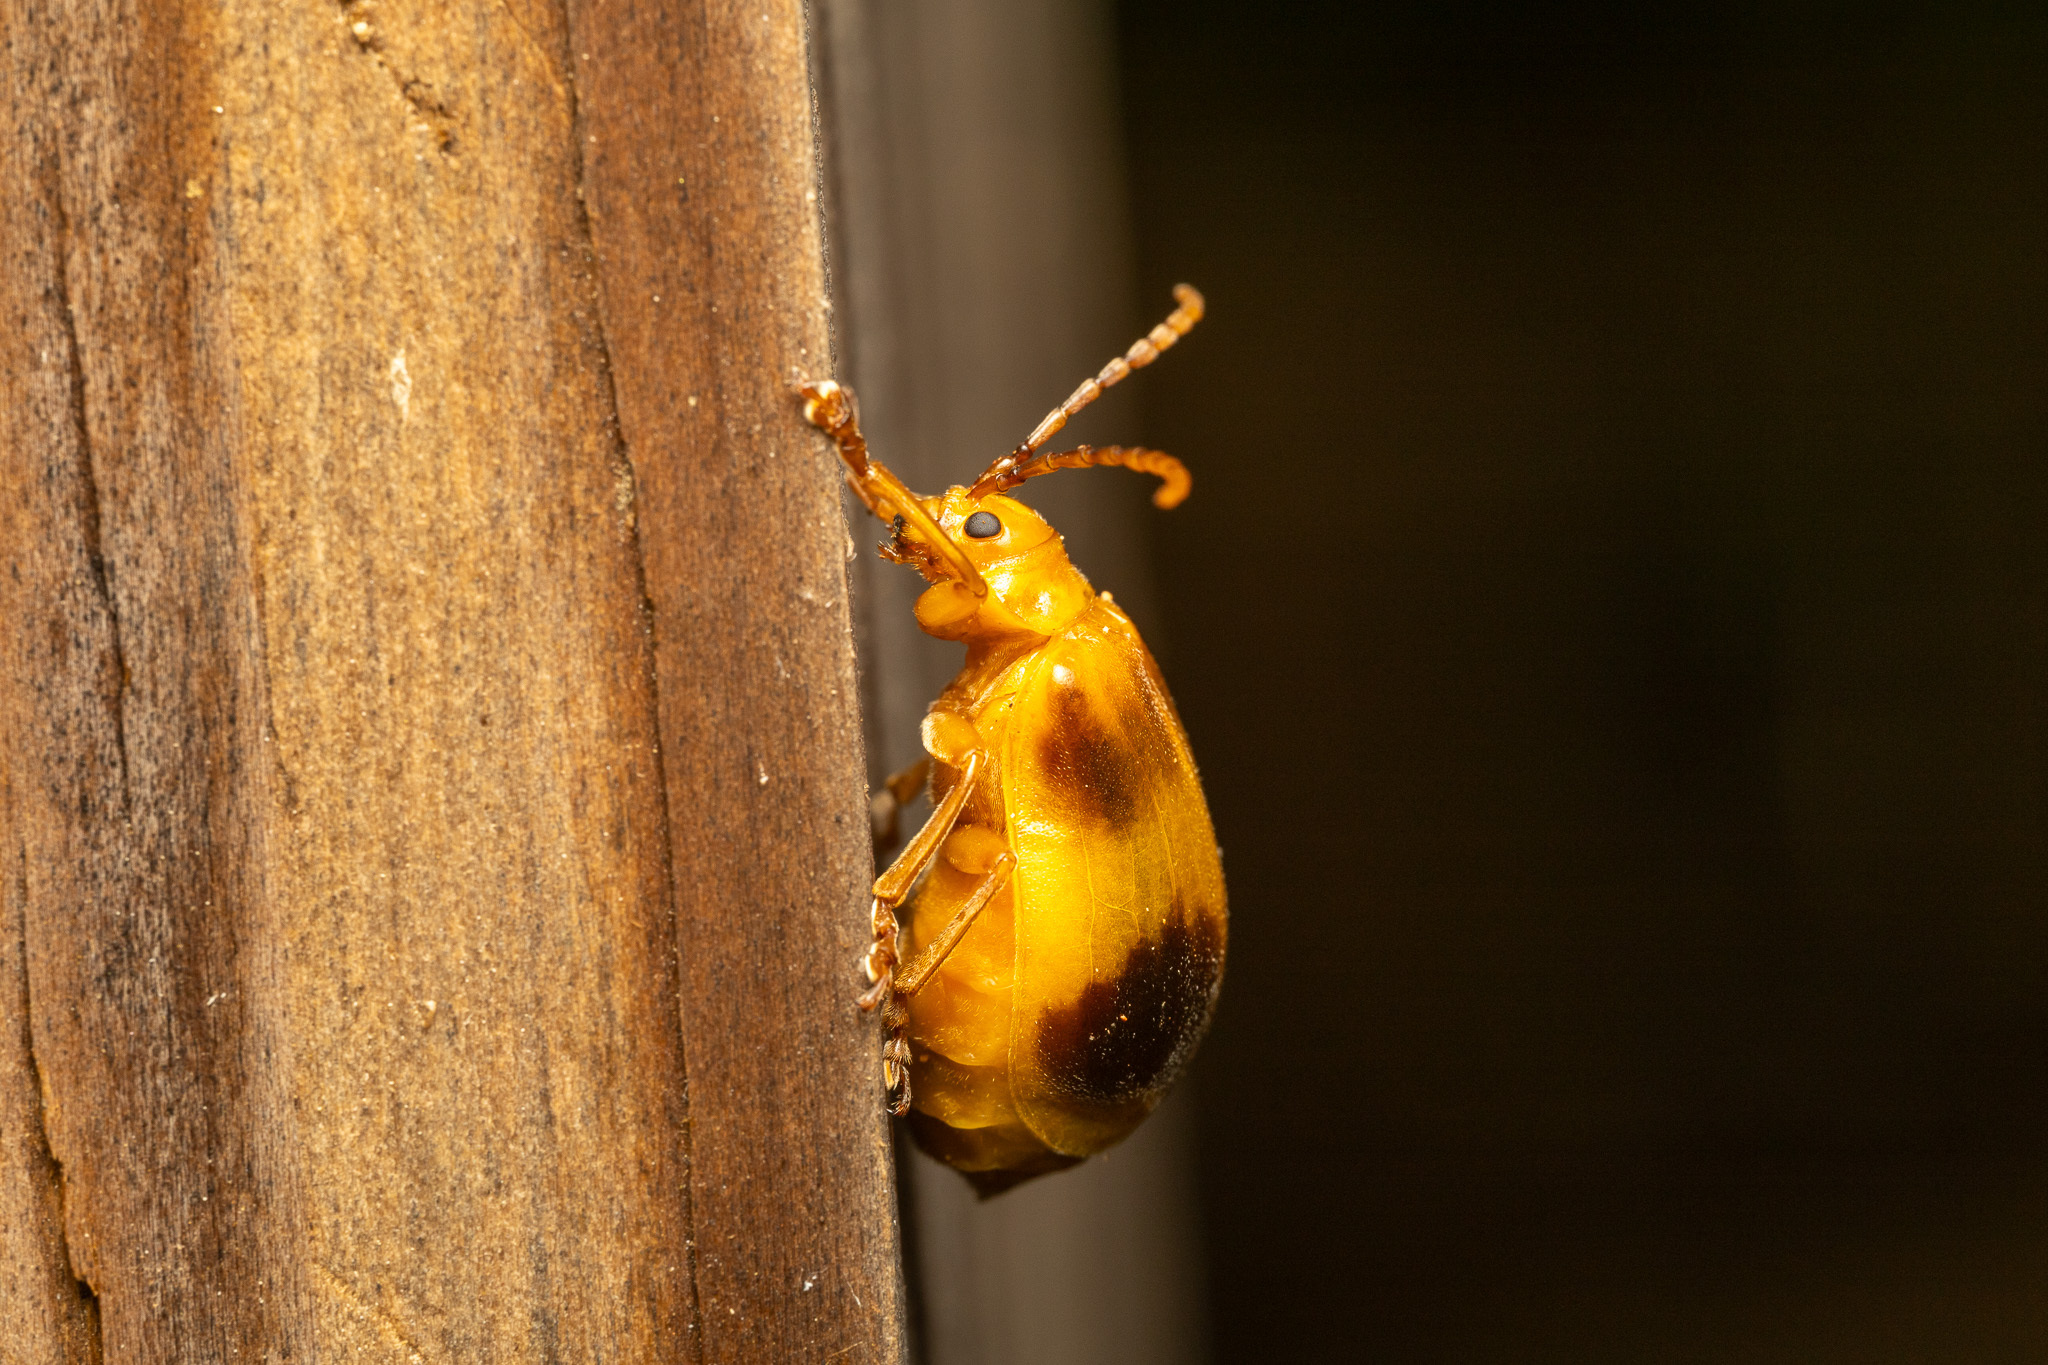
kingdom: Animalia
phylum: Arthropoda
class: Insecta
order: Coleoptera
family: Chrysomelidae
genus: Monocesta
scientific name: Monocesta coryli
